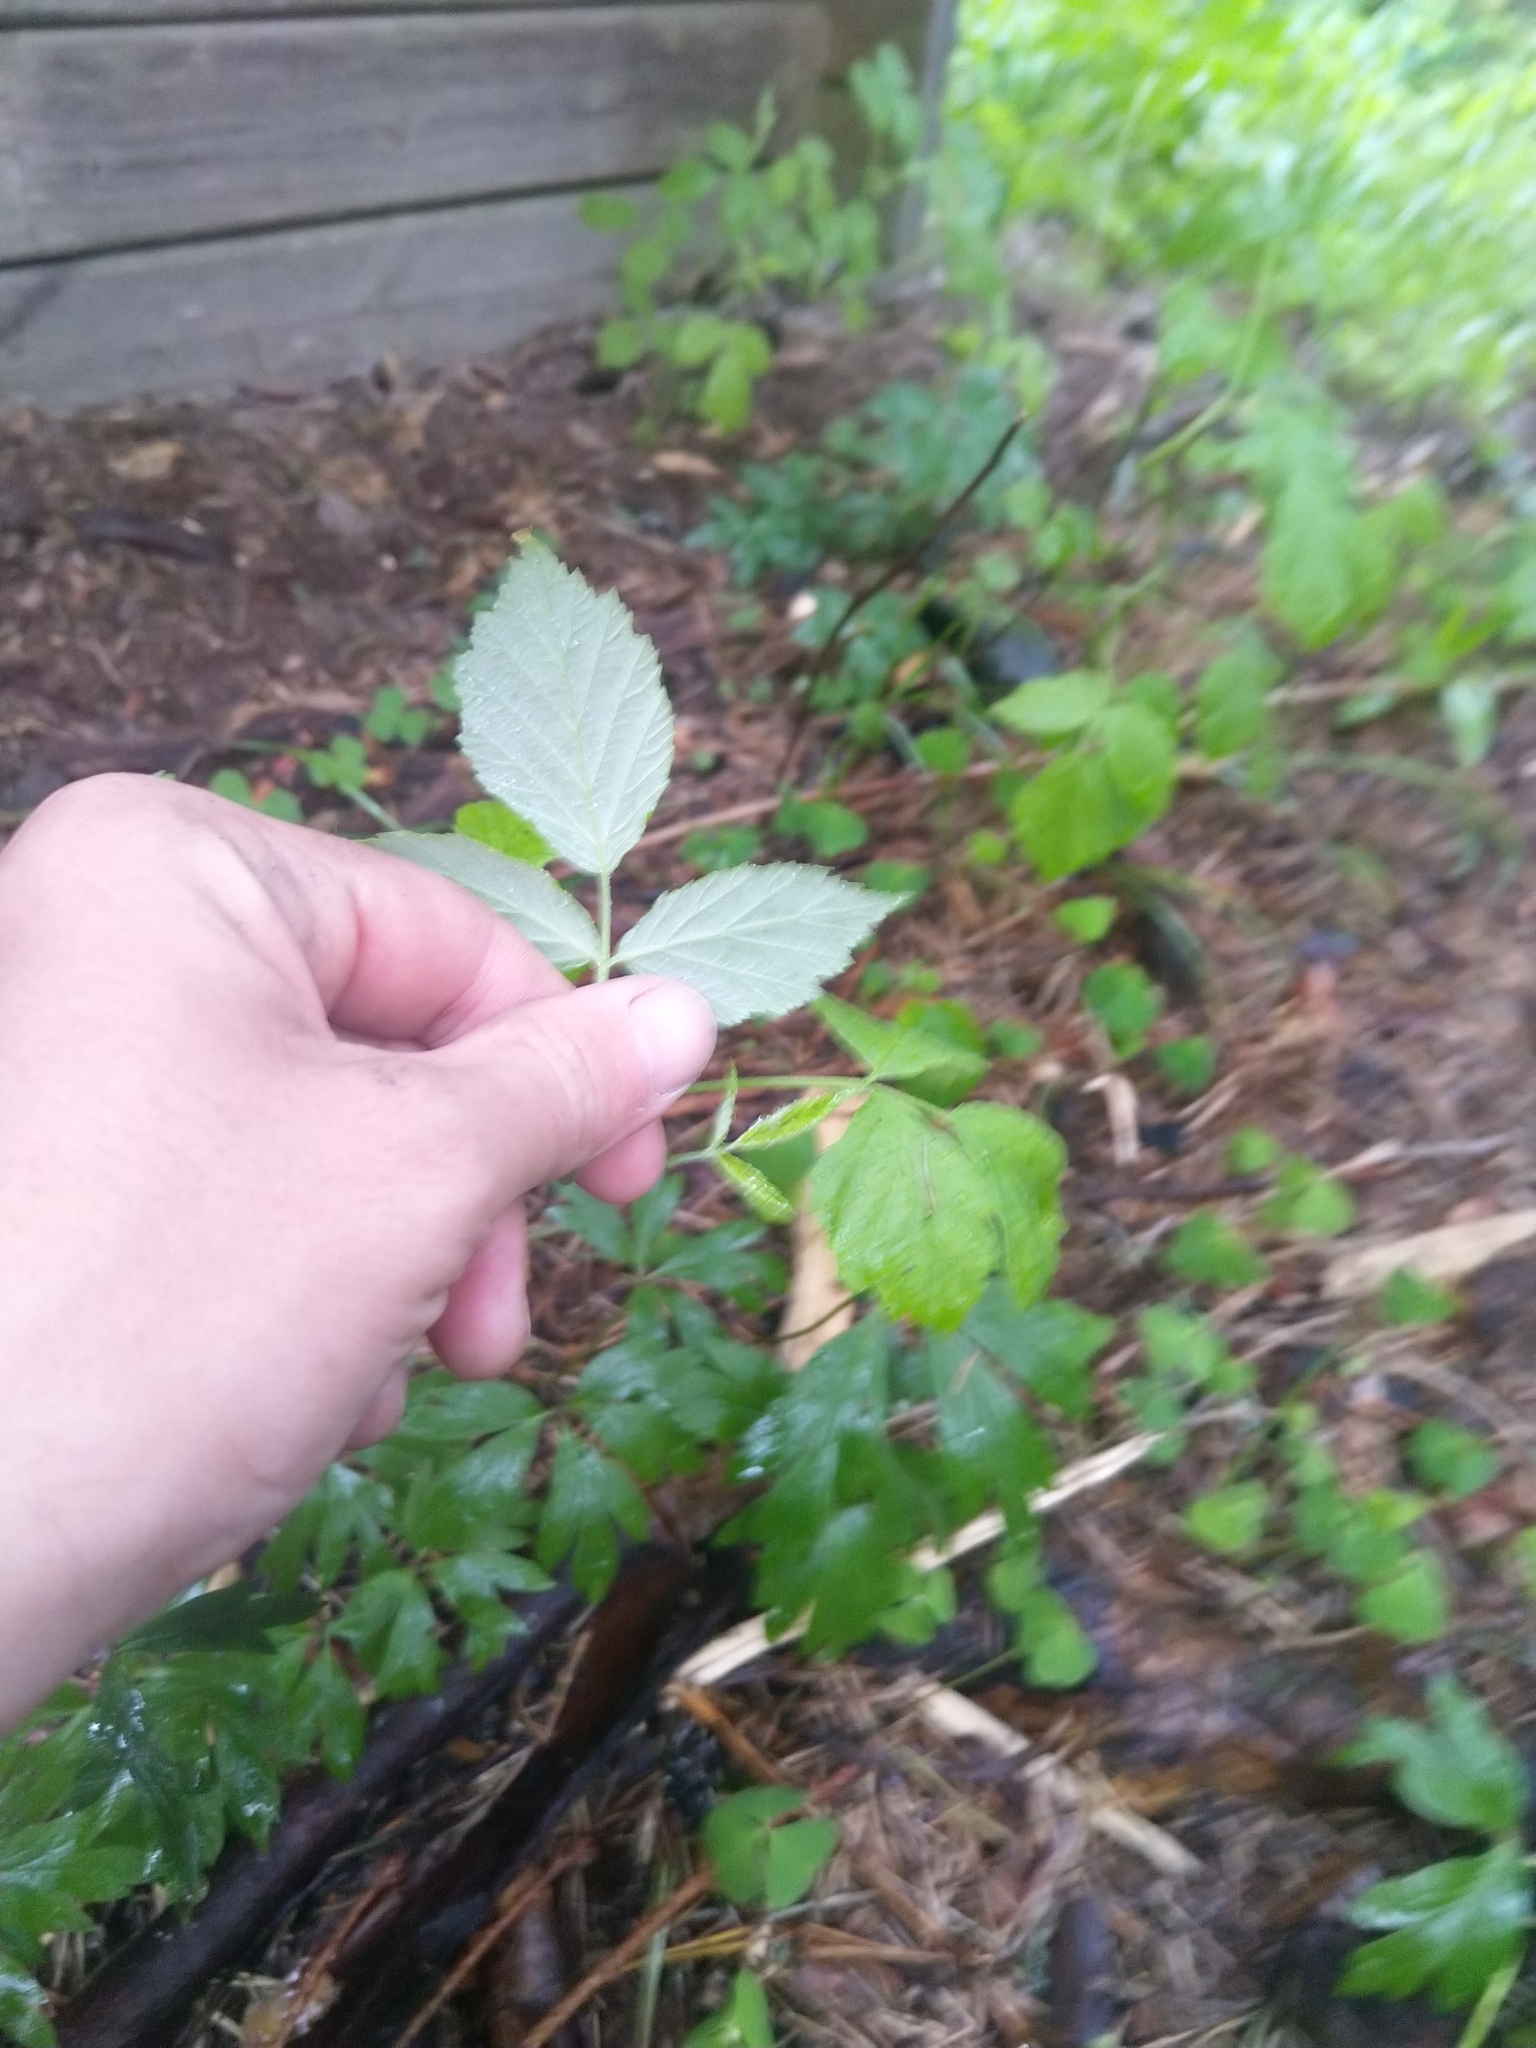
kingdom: Plantae
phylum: Tracheophyta
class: Magnoliopsida
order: Rosales
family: Rosaceae
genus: Rubus
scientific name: Rubus idaeus
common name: Raspberry
